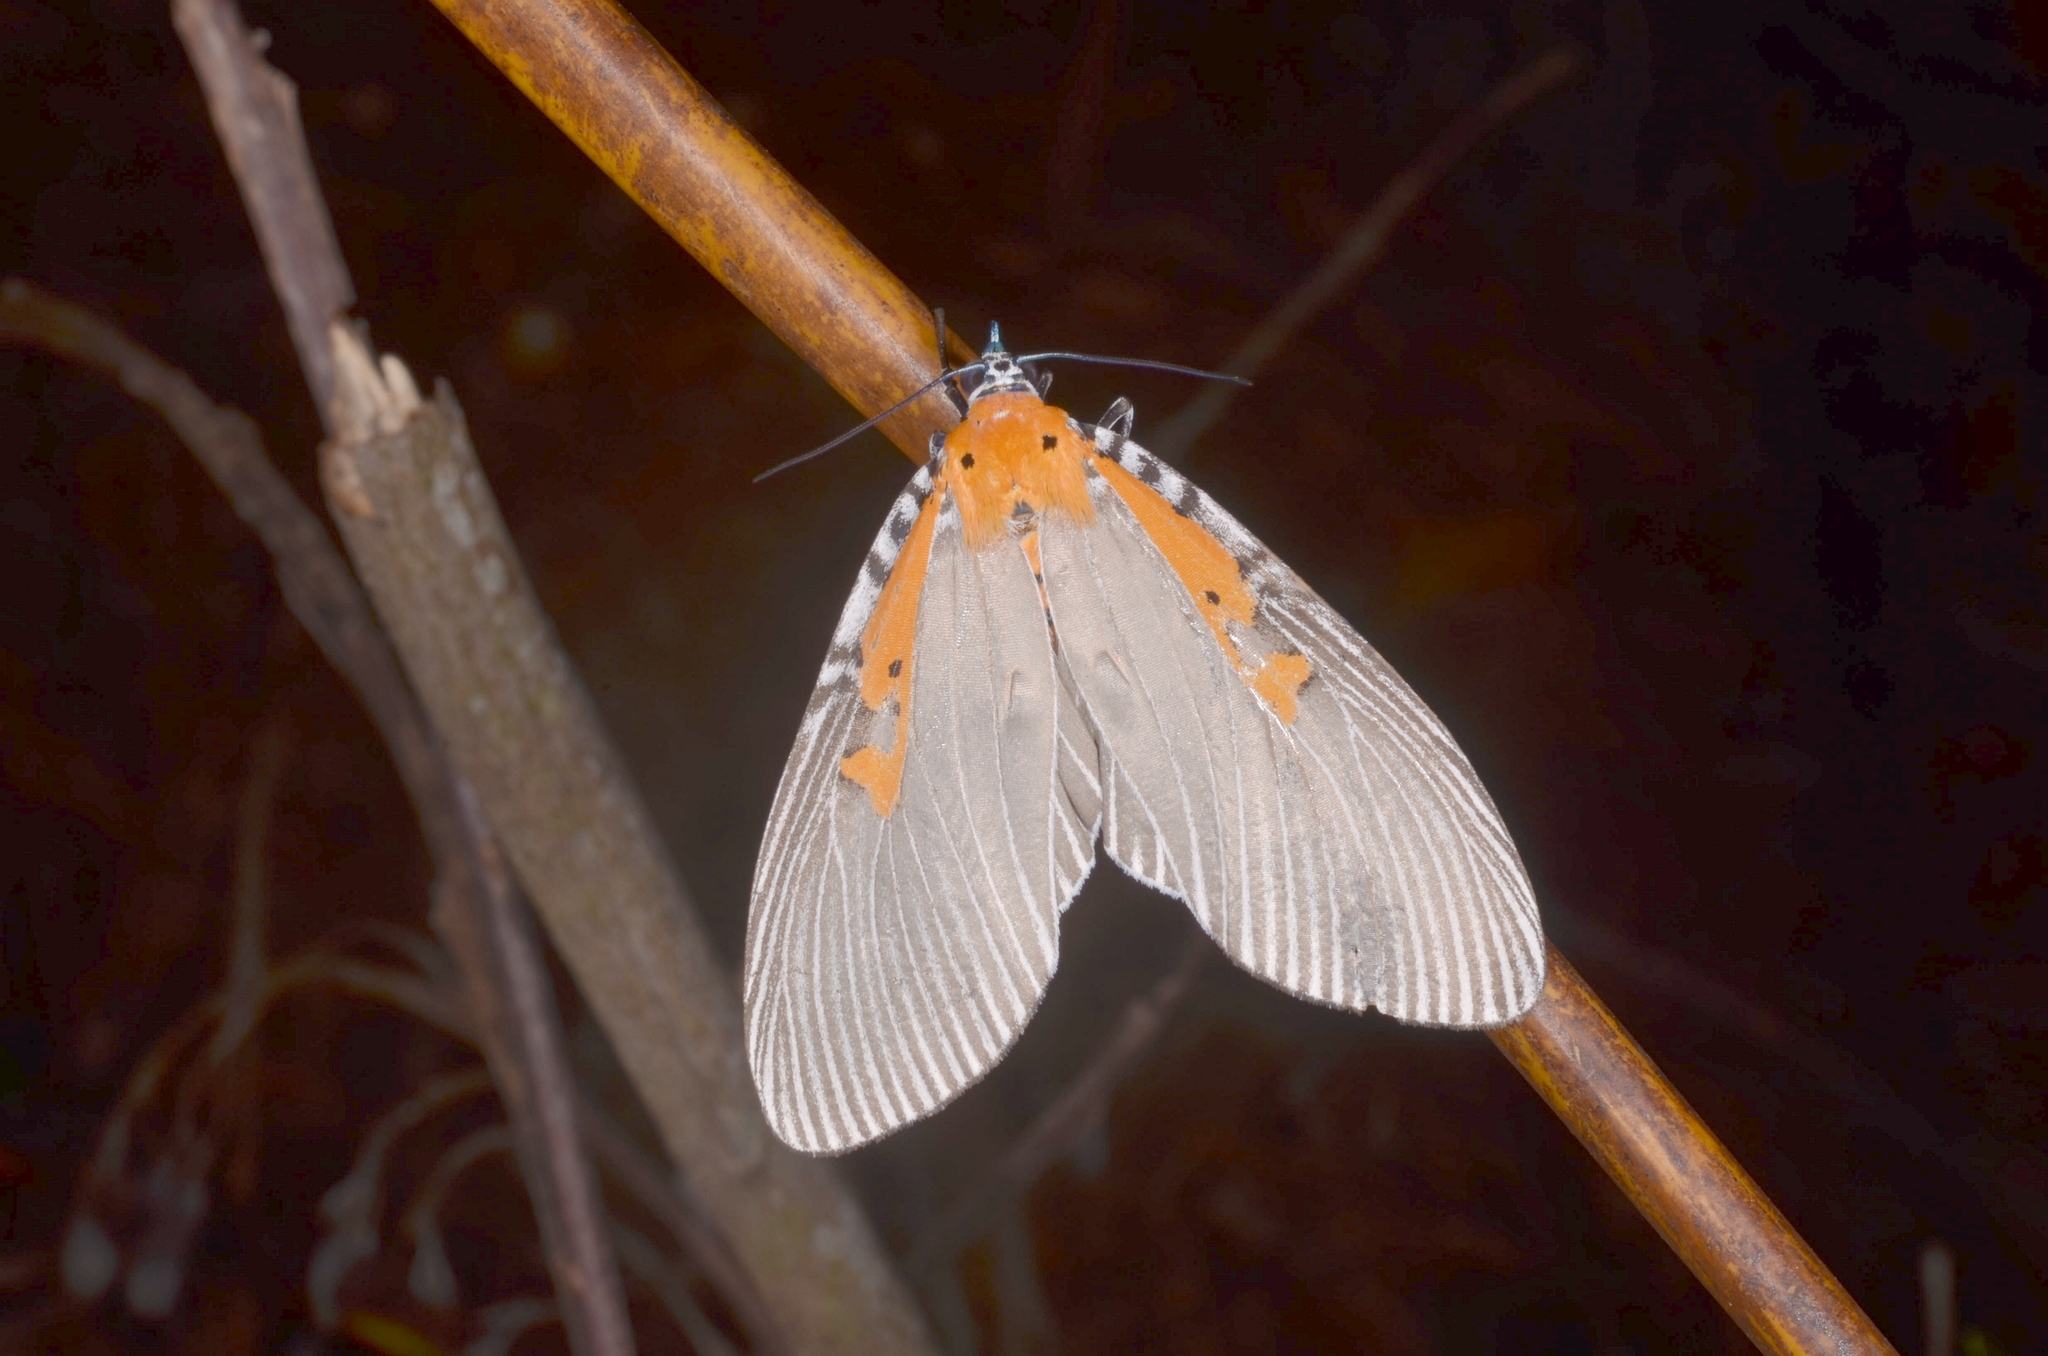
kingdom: Animalia
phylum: Arthropoda
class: Insecta
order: Lepidoptera
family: Erebidae
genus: Euplocia
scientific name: Euplocia membliaria
